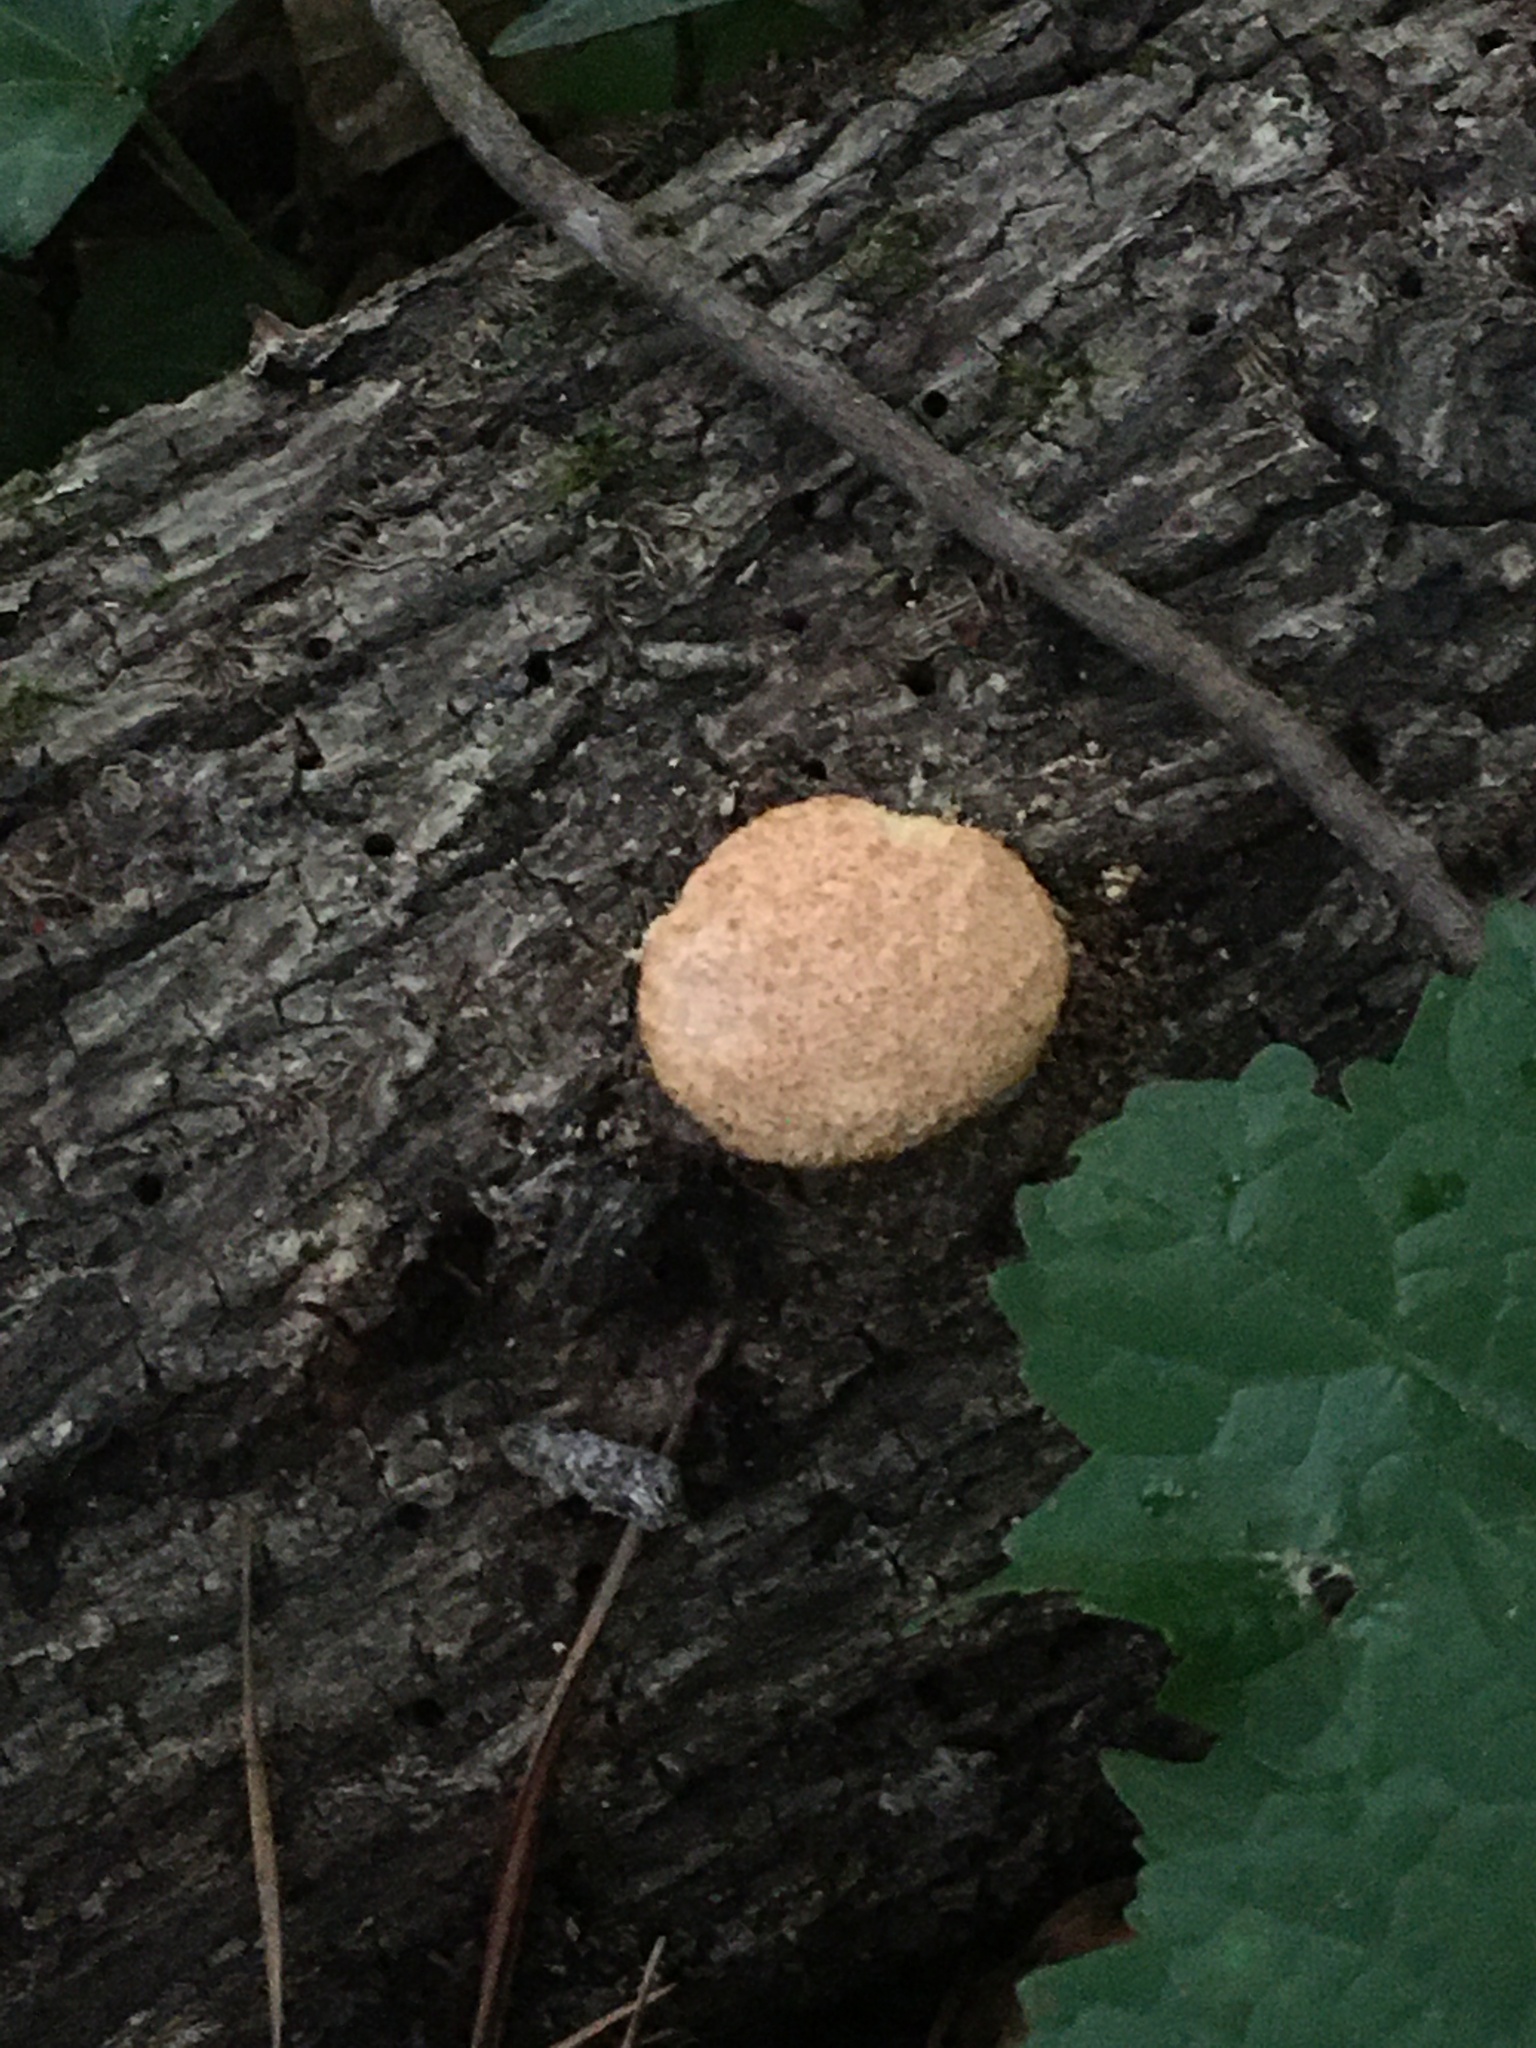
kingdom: Protozoa
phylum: Mycetozoa
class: Myxomycetes
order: Physarales
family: Physaraceae
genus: Fuligo
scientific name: Fuligo septica
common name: Dog vomit slime mold
